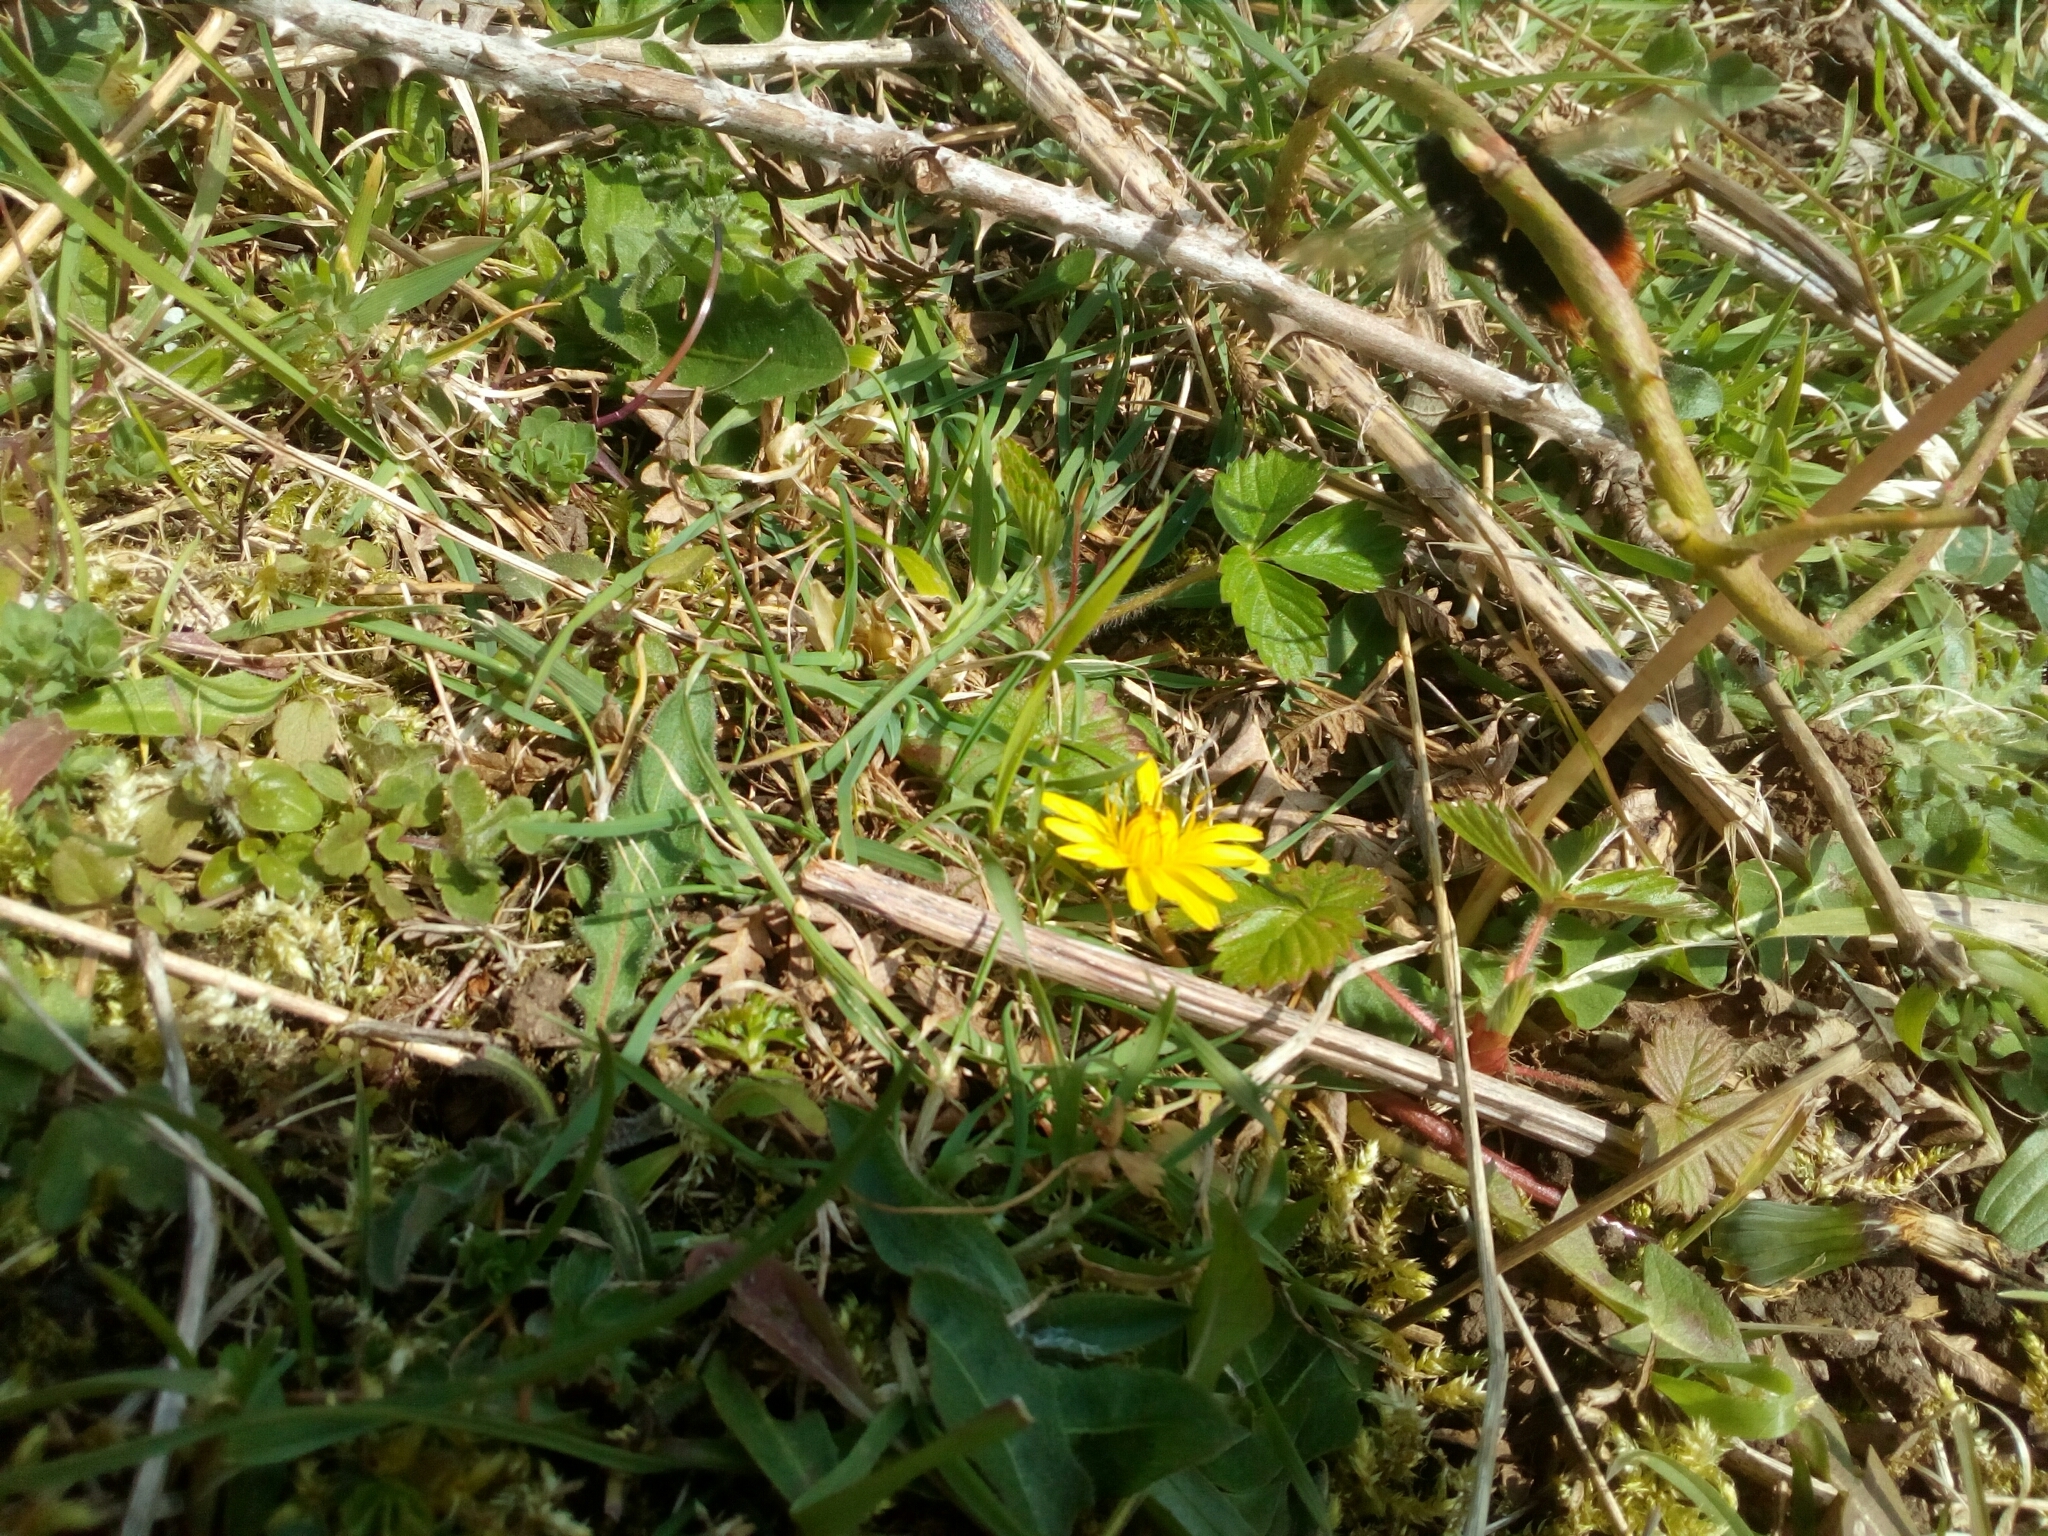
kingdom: Animalia
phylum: Arthropoda
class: Insecta
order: Hymenoptera
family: Apidae
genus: Bombus
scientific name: Bombus lapidarius
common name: Large red-tailed humble-bee
